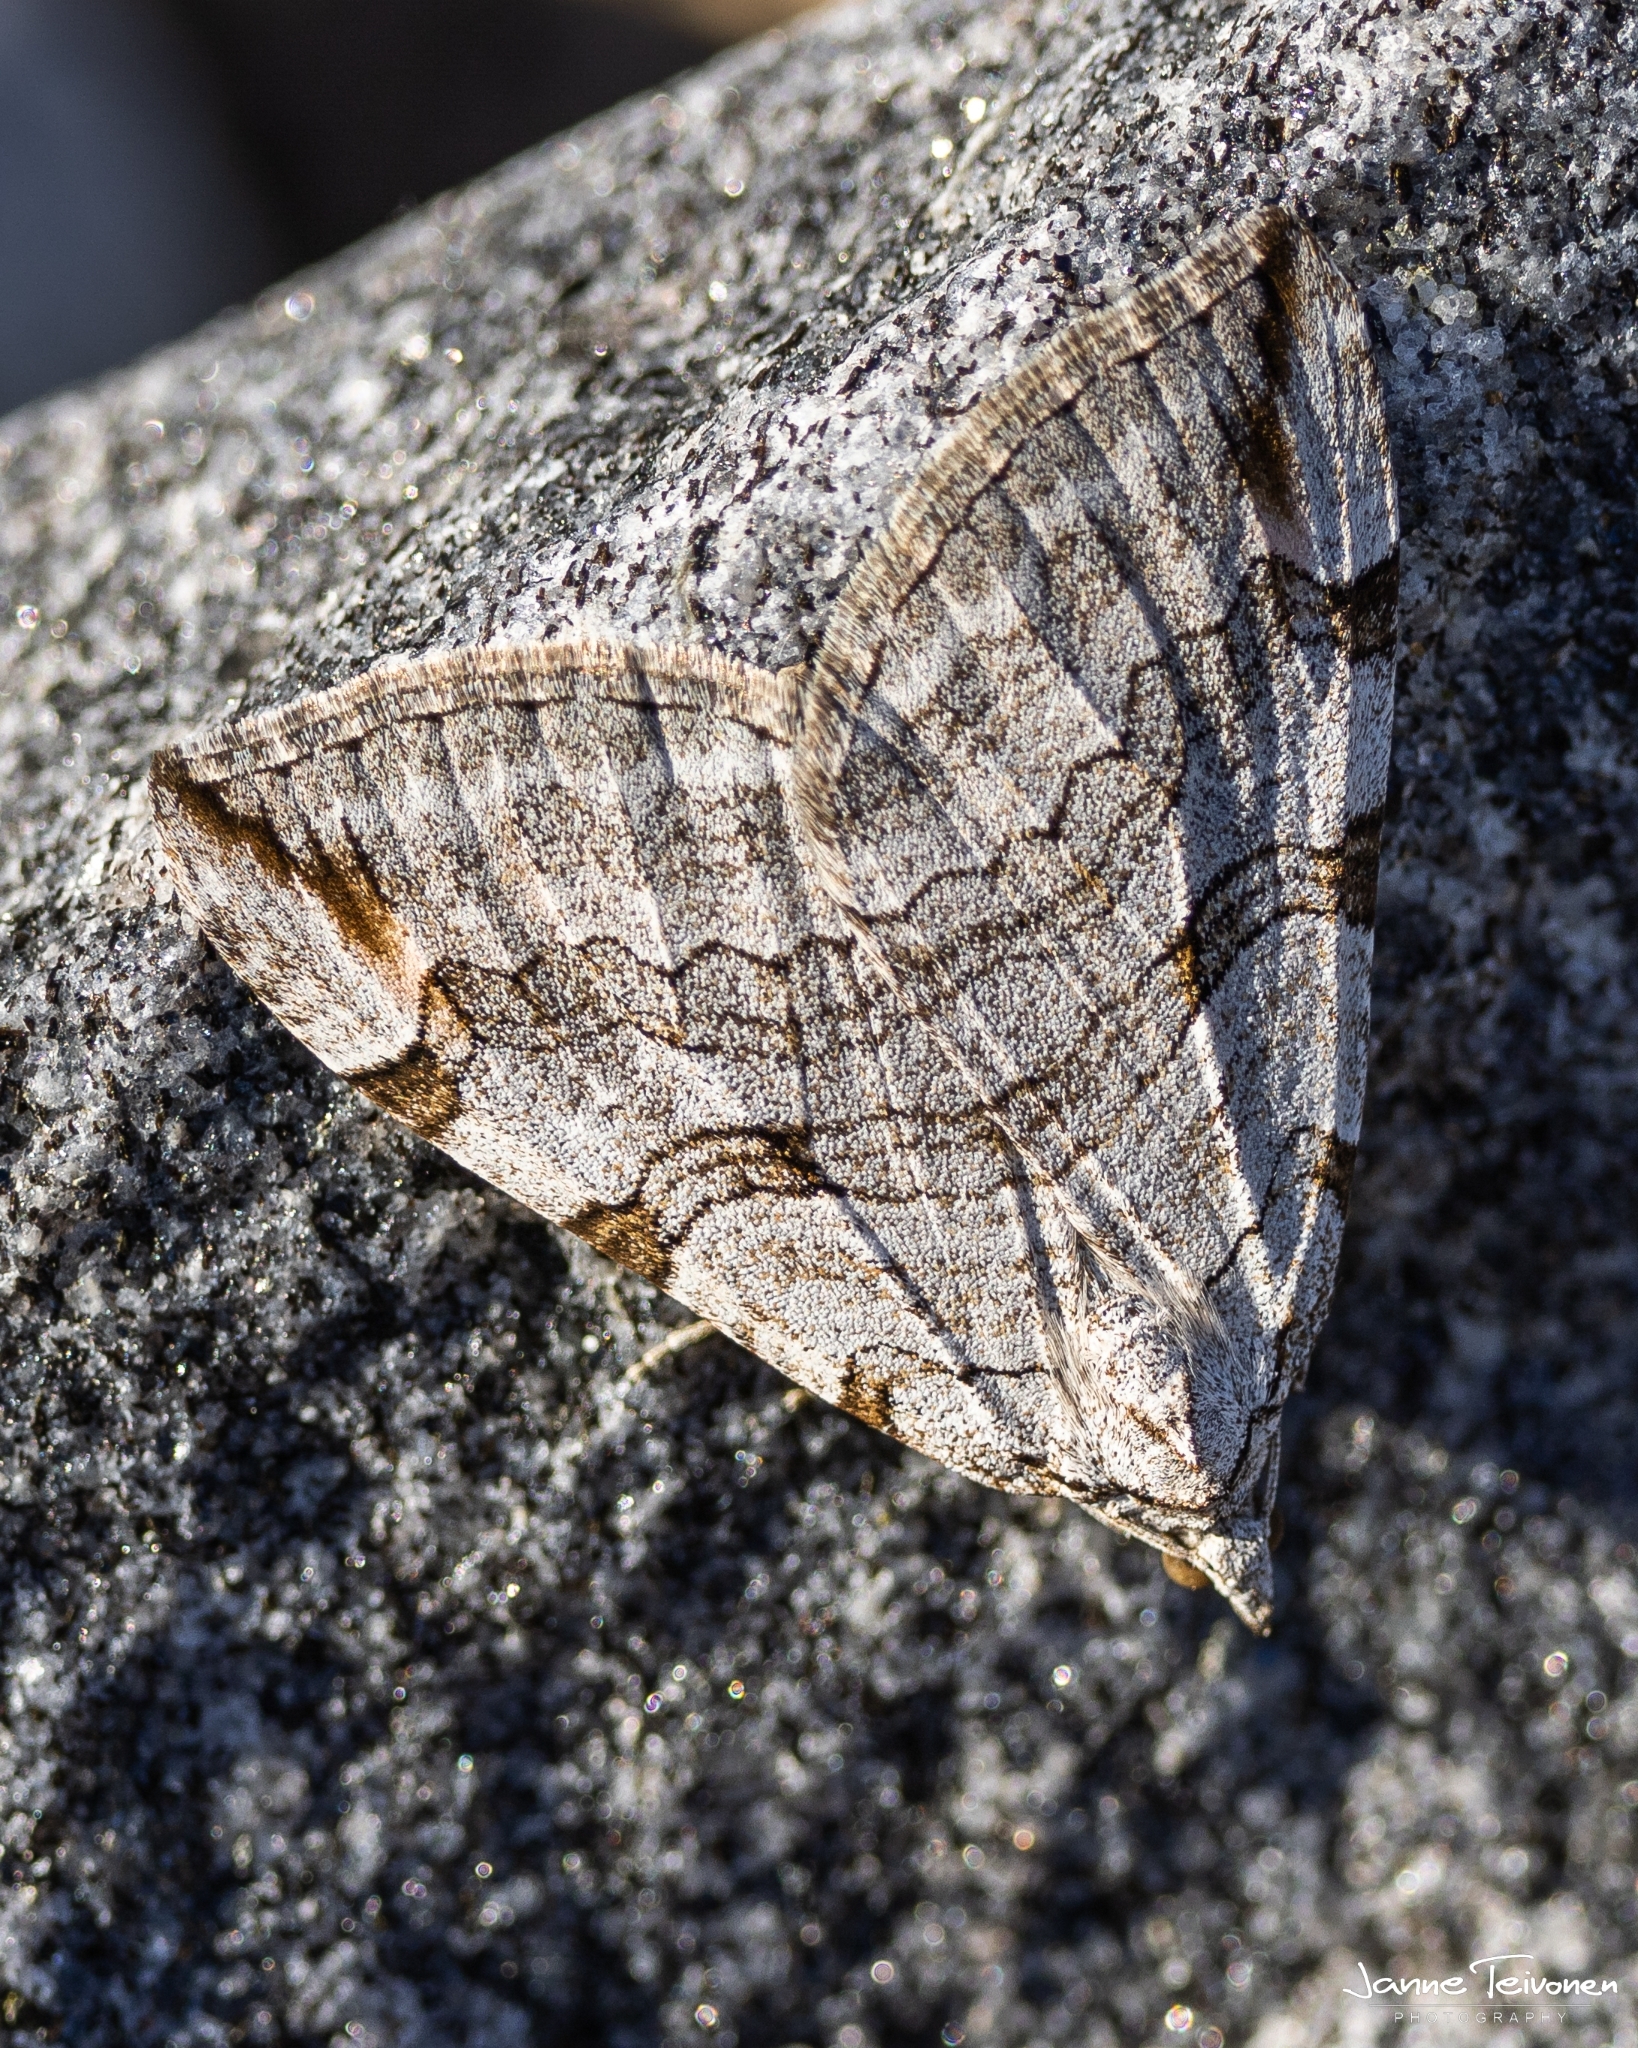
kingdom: Animalia
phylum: Arthropoda
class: Insecta
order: Lepidoptera
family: Geometridae
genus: Aplocera
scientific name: Aplocera plagiata
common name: Treble-bar
